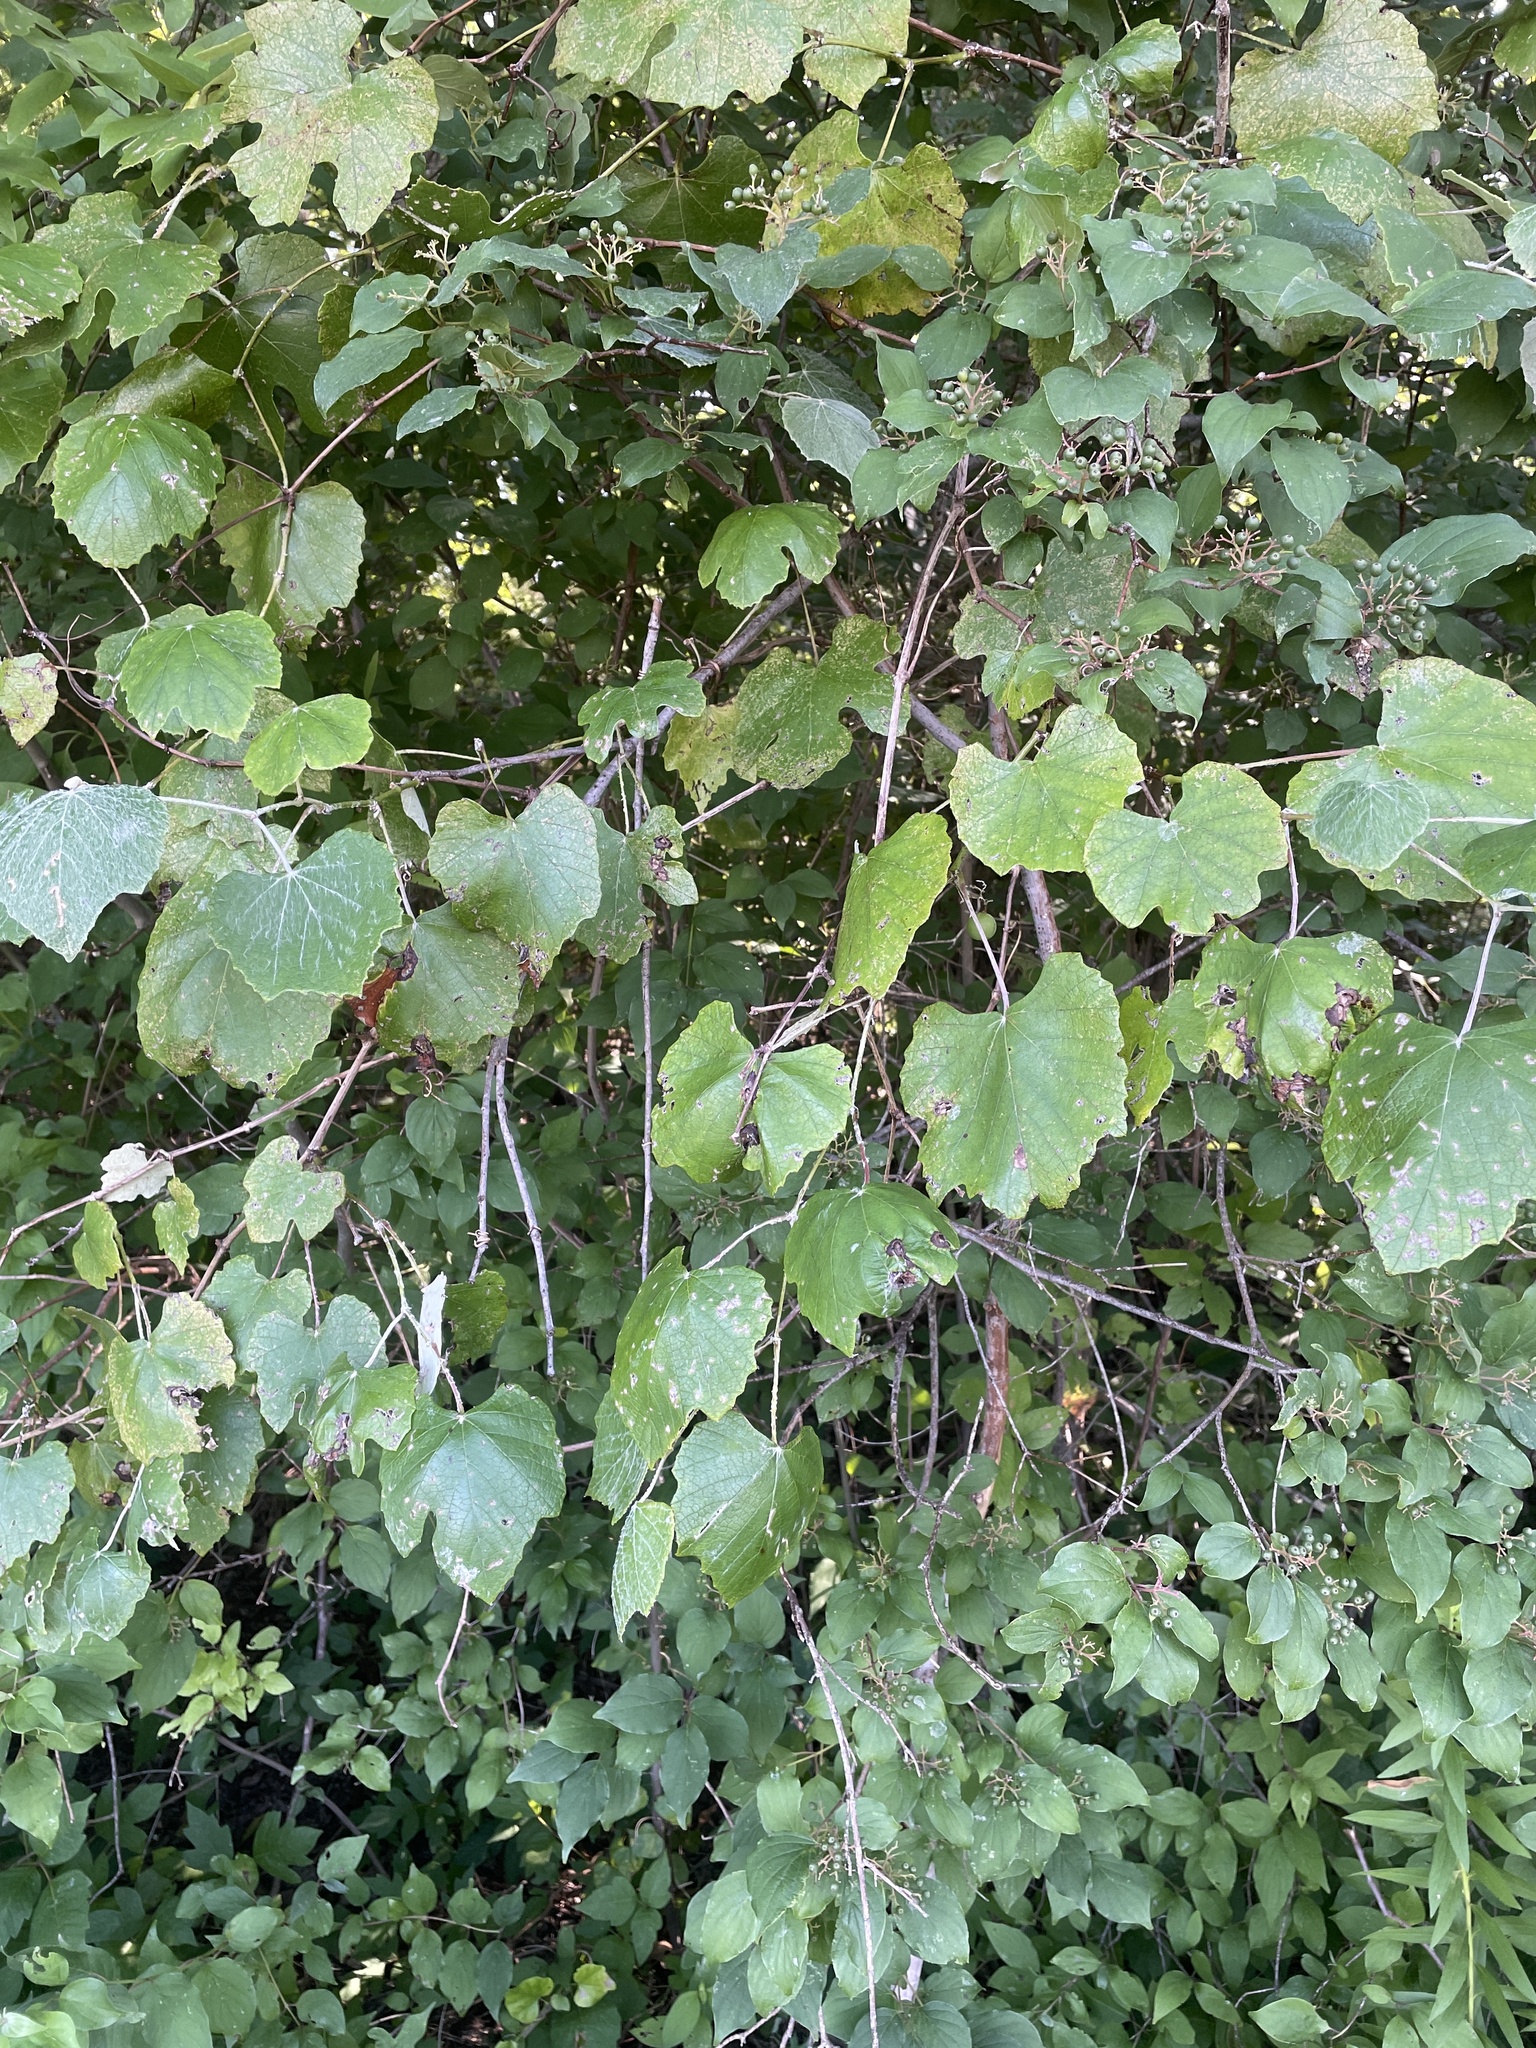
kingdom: Plantae
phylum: Tracheophyta
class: Magnoliopsida
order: Vitales
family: Vitaceae
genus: Vitis
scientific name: Vitis mustangensis
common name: Mustang grape
